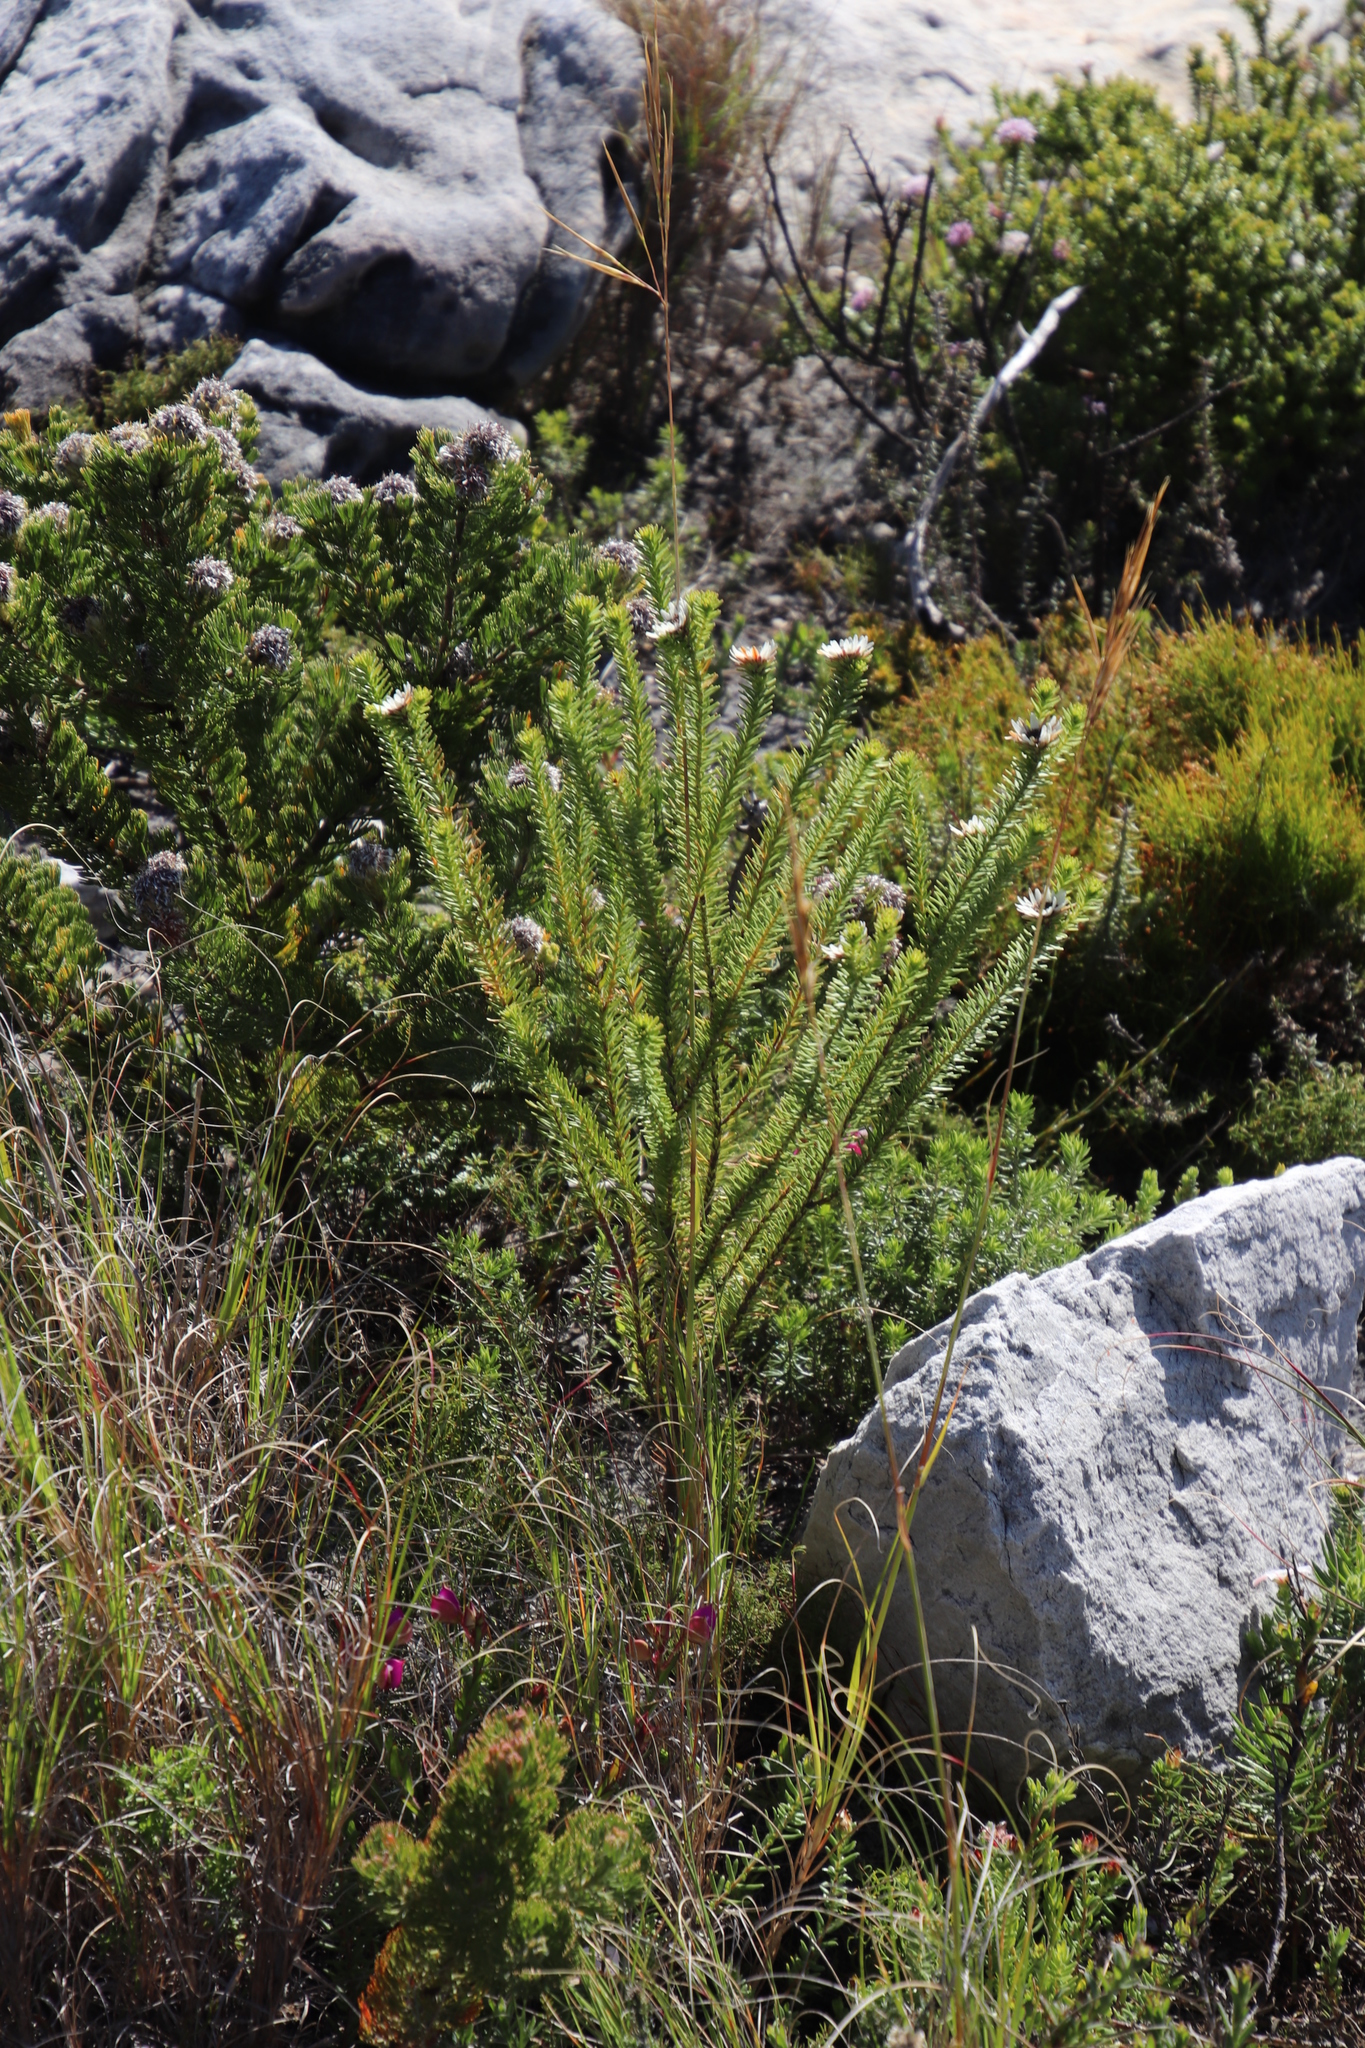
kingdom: Plantae
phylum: Tracheophyta
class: Magnoliopsida
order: Bruniales
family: Bruniaceae
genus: Staavia
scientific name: Staavia dodii
